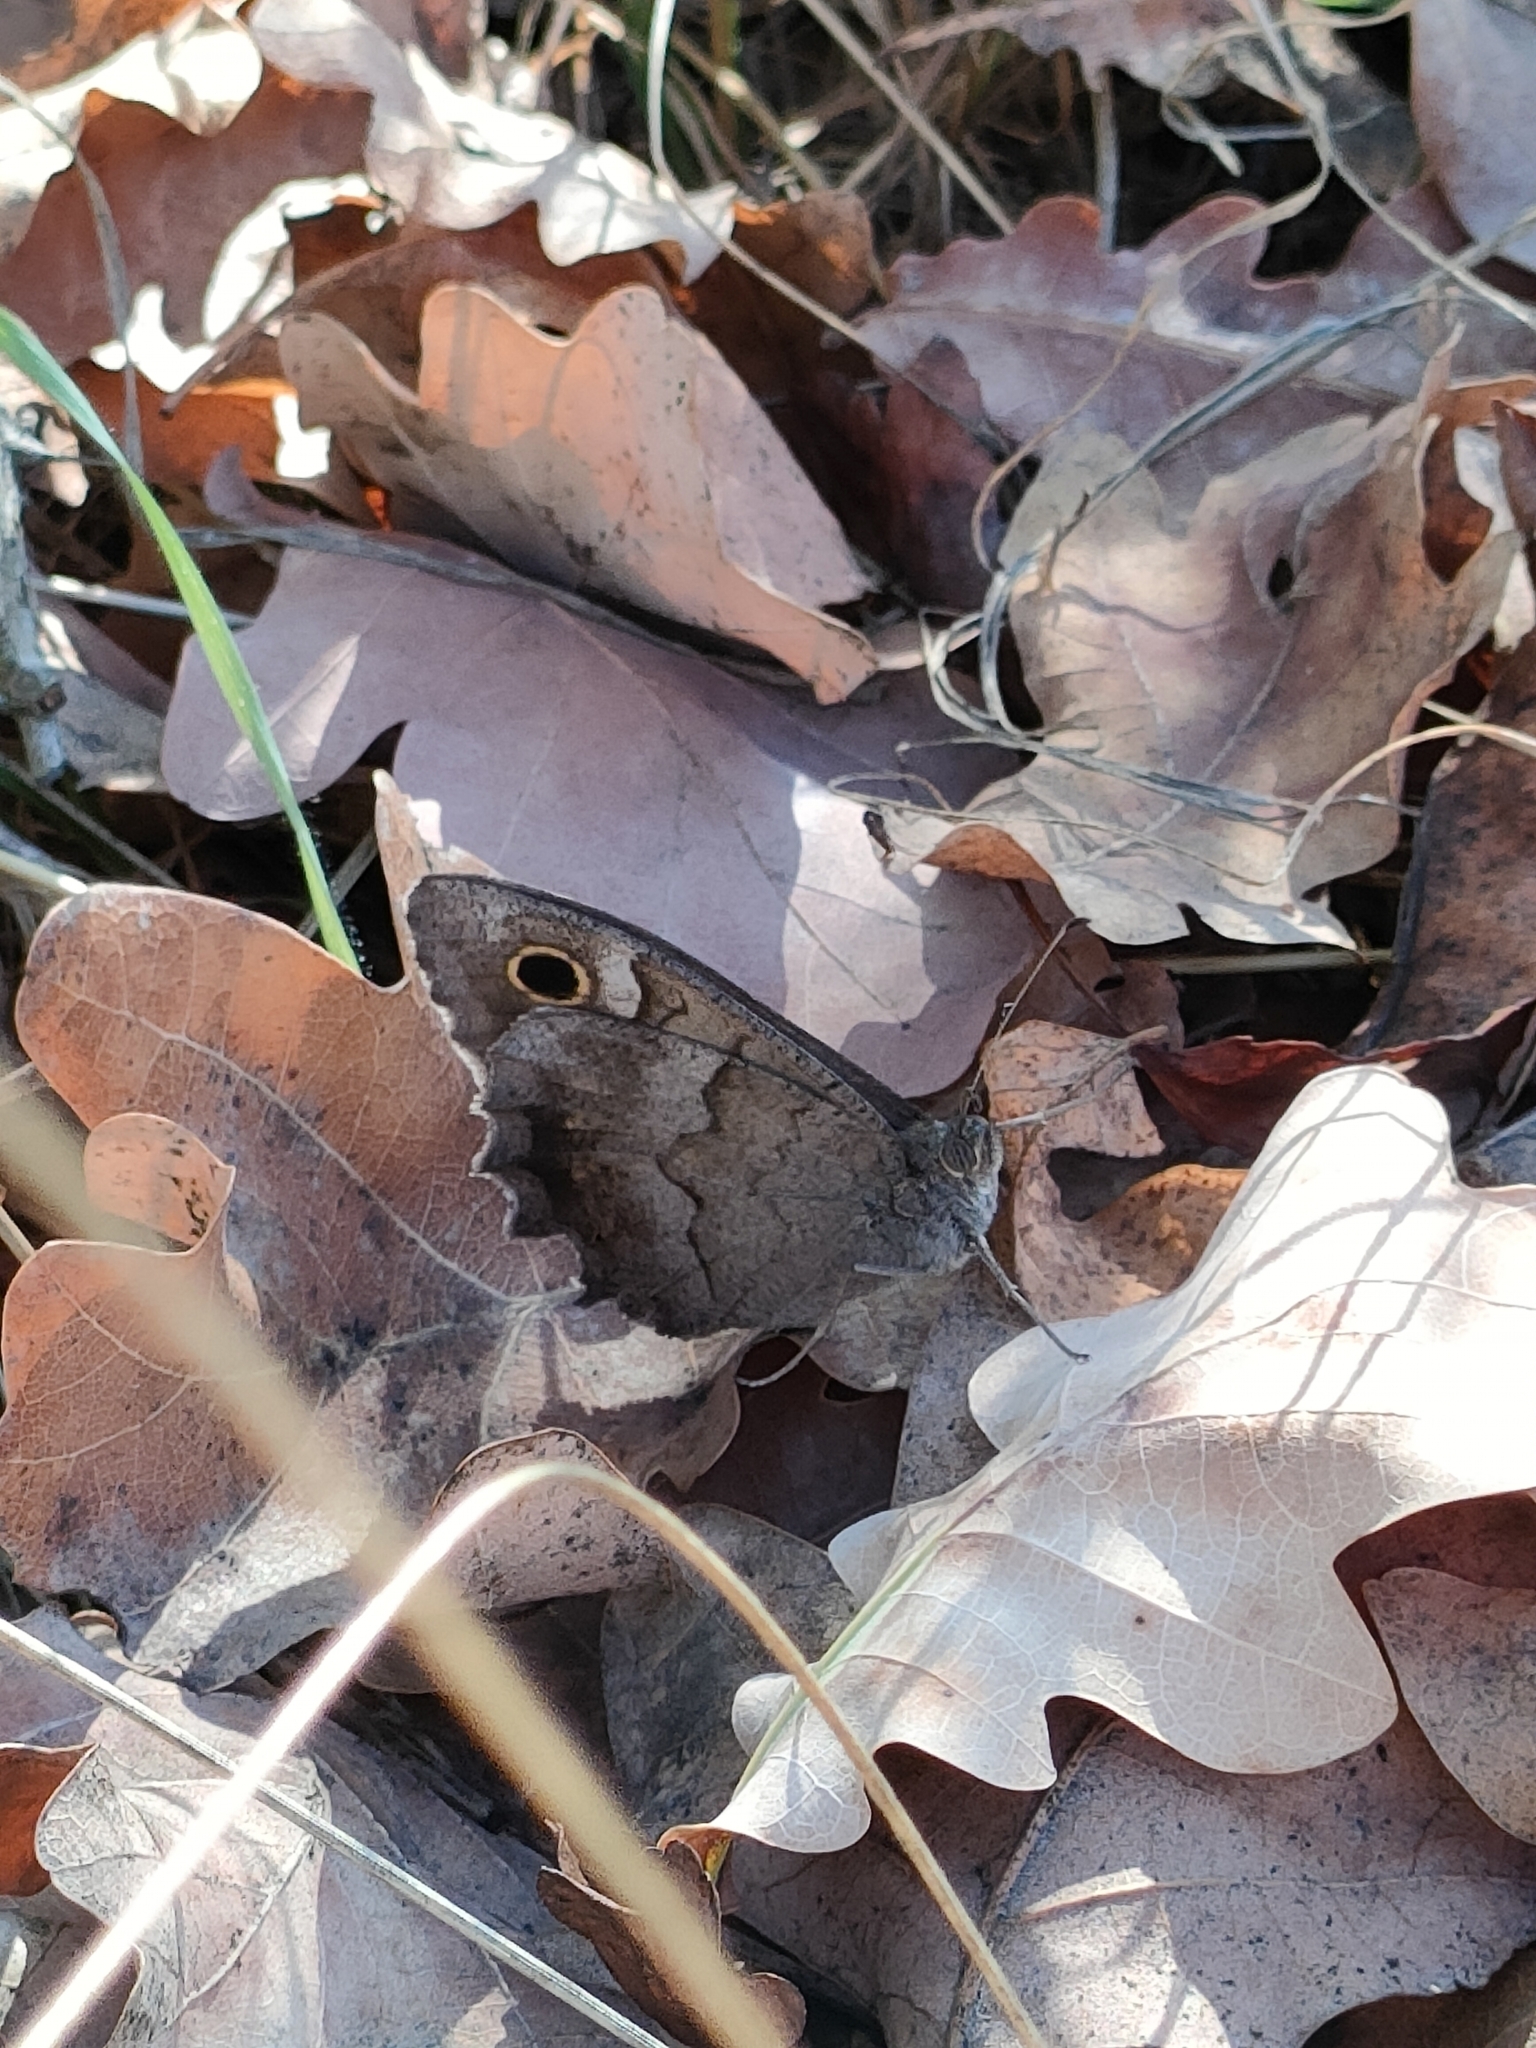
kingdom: Animalia
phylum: Arthropoda
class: Insecta
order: Lepidoptera
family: Nymphalidae
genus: Hipparchia
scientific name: Hipparchia statilinus
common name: Tree grayling
